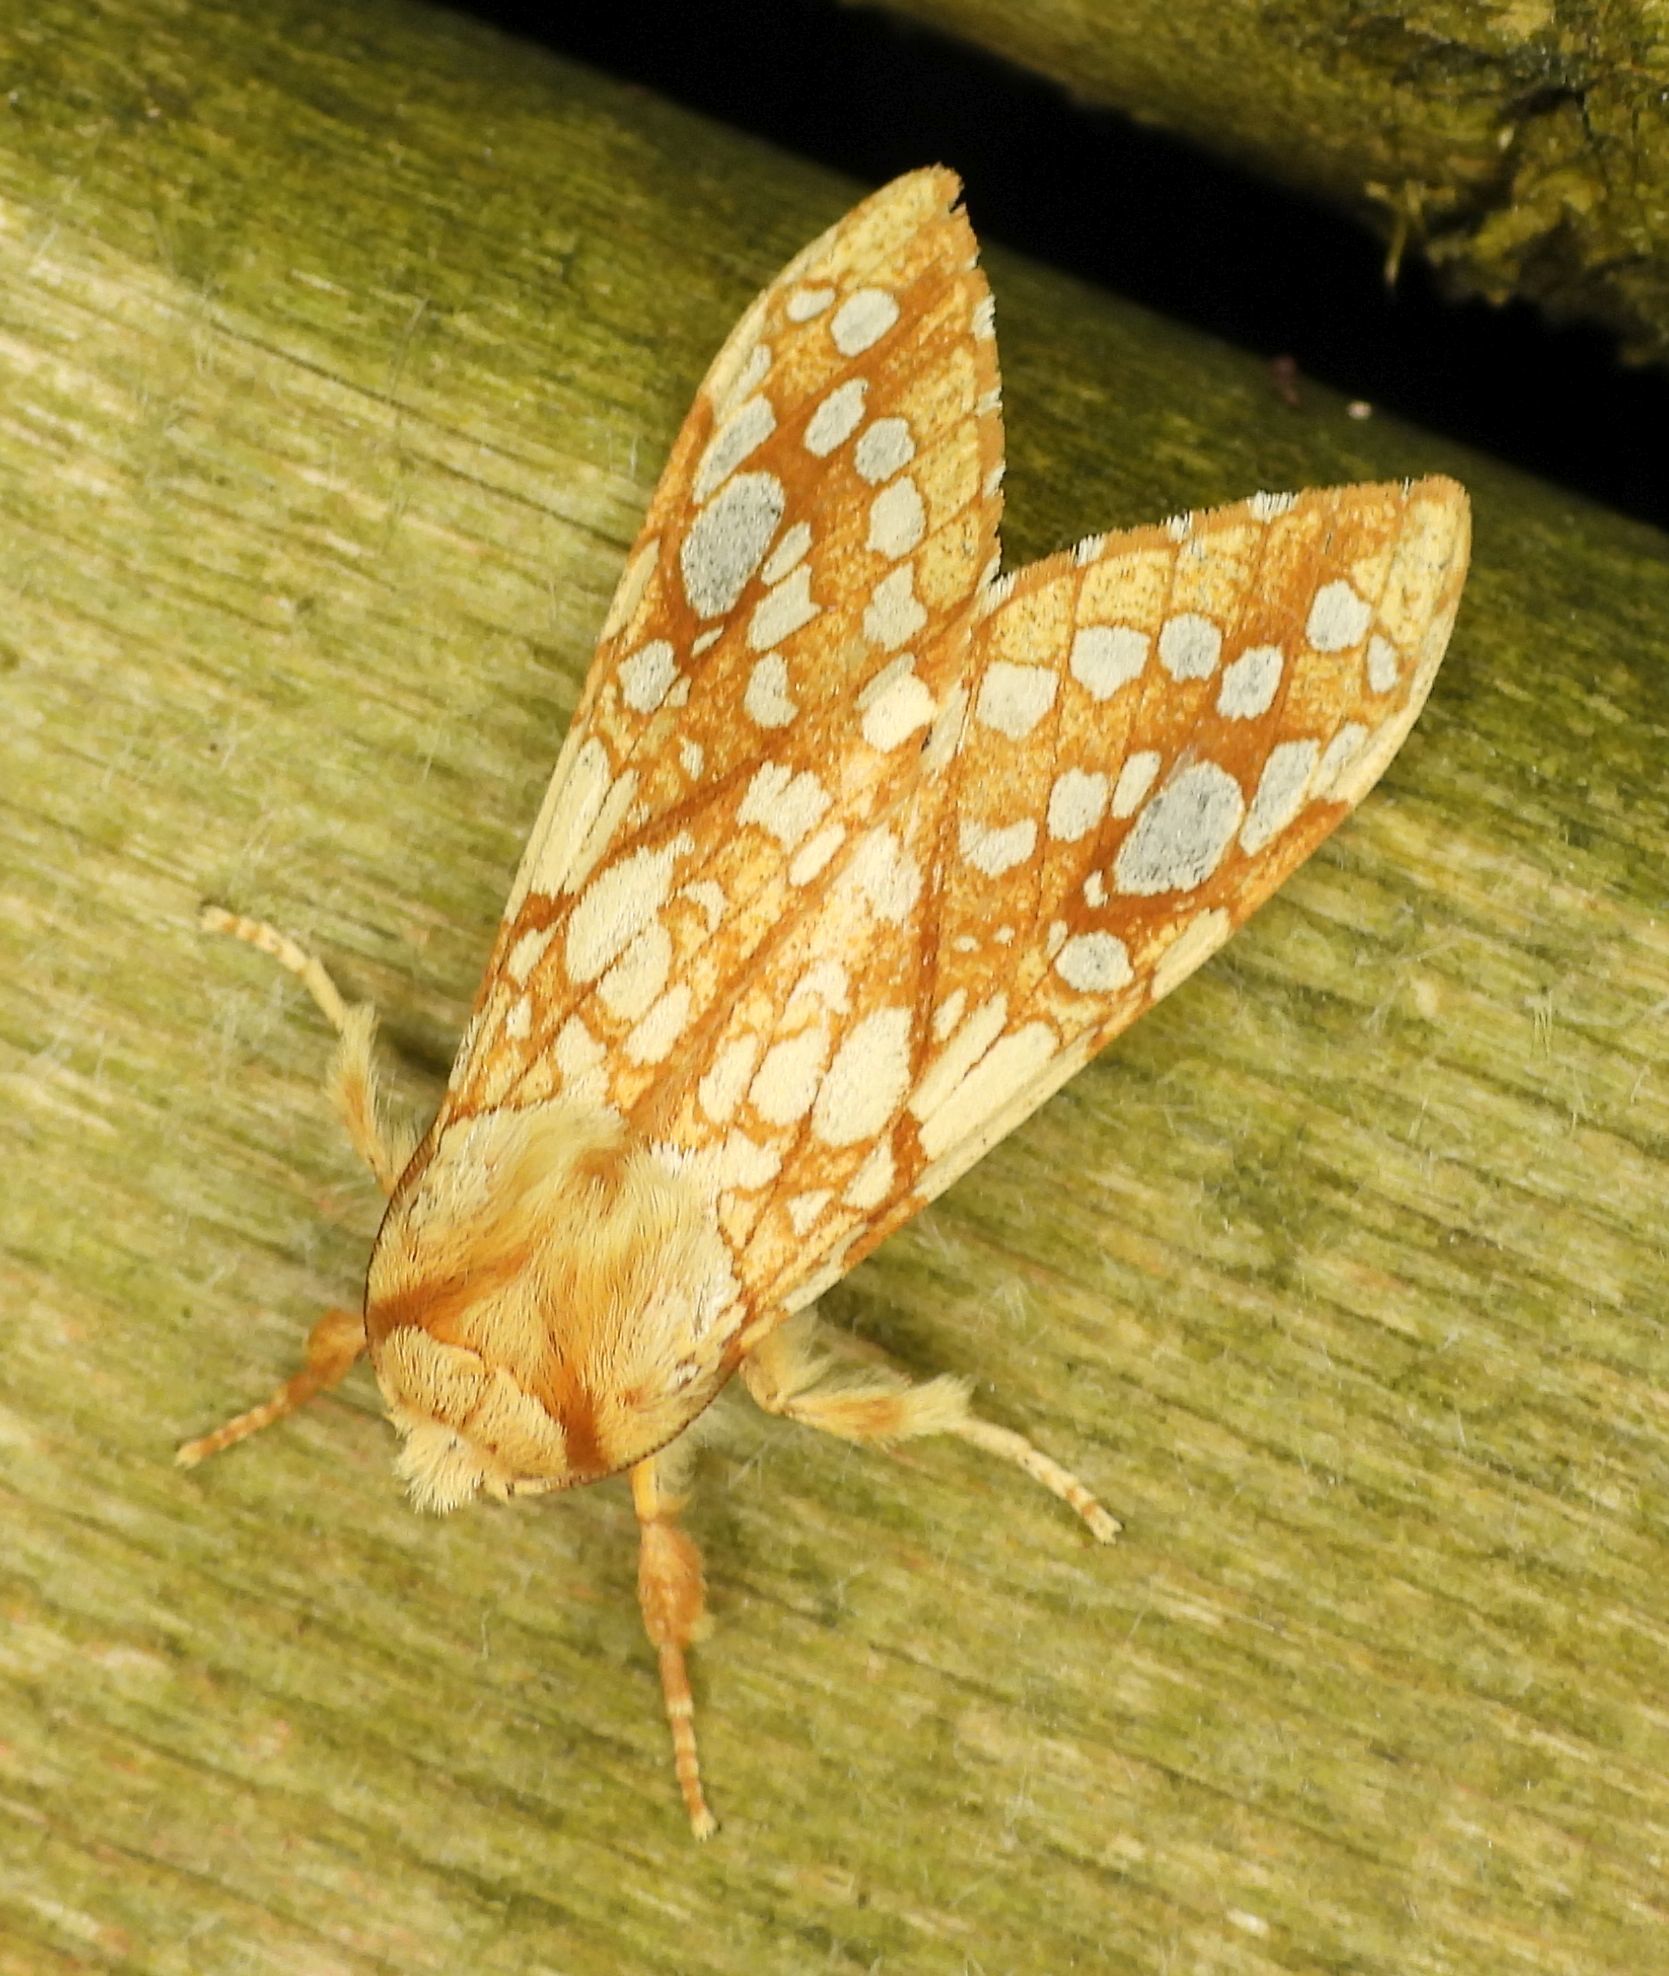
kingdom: Animalia
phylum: Arthropoda
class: Insecta
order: Lepidoptera
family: Erebidae
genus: Lophocampa
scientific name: Lophocampa caryae
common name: Hickory tussock moth
